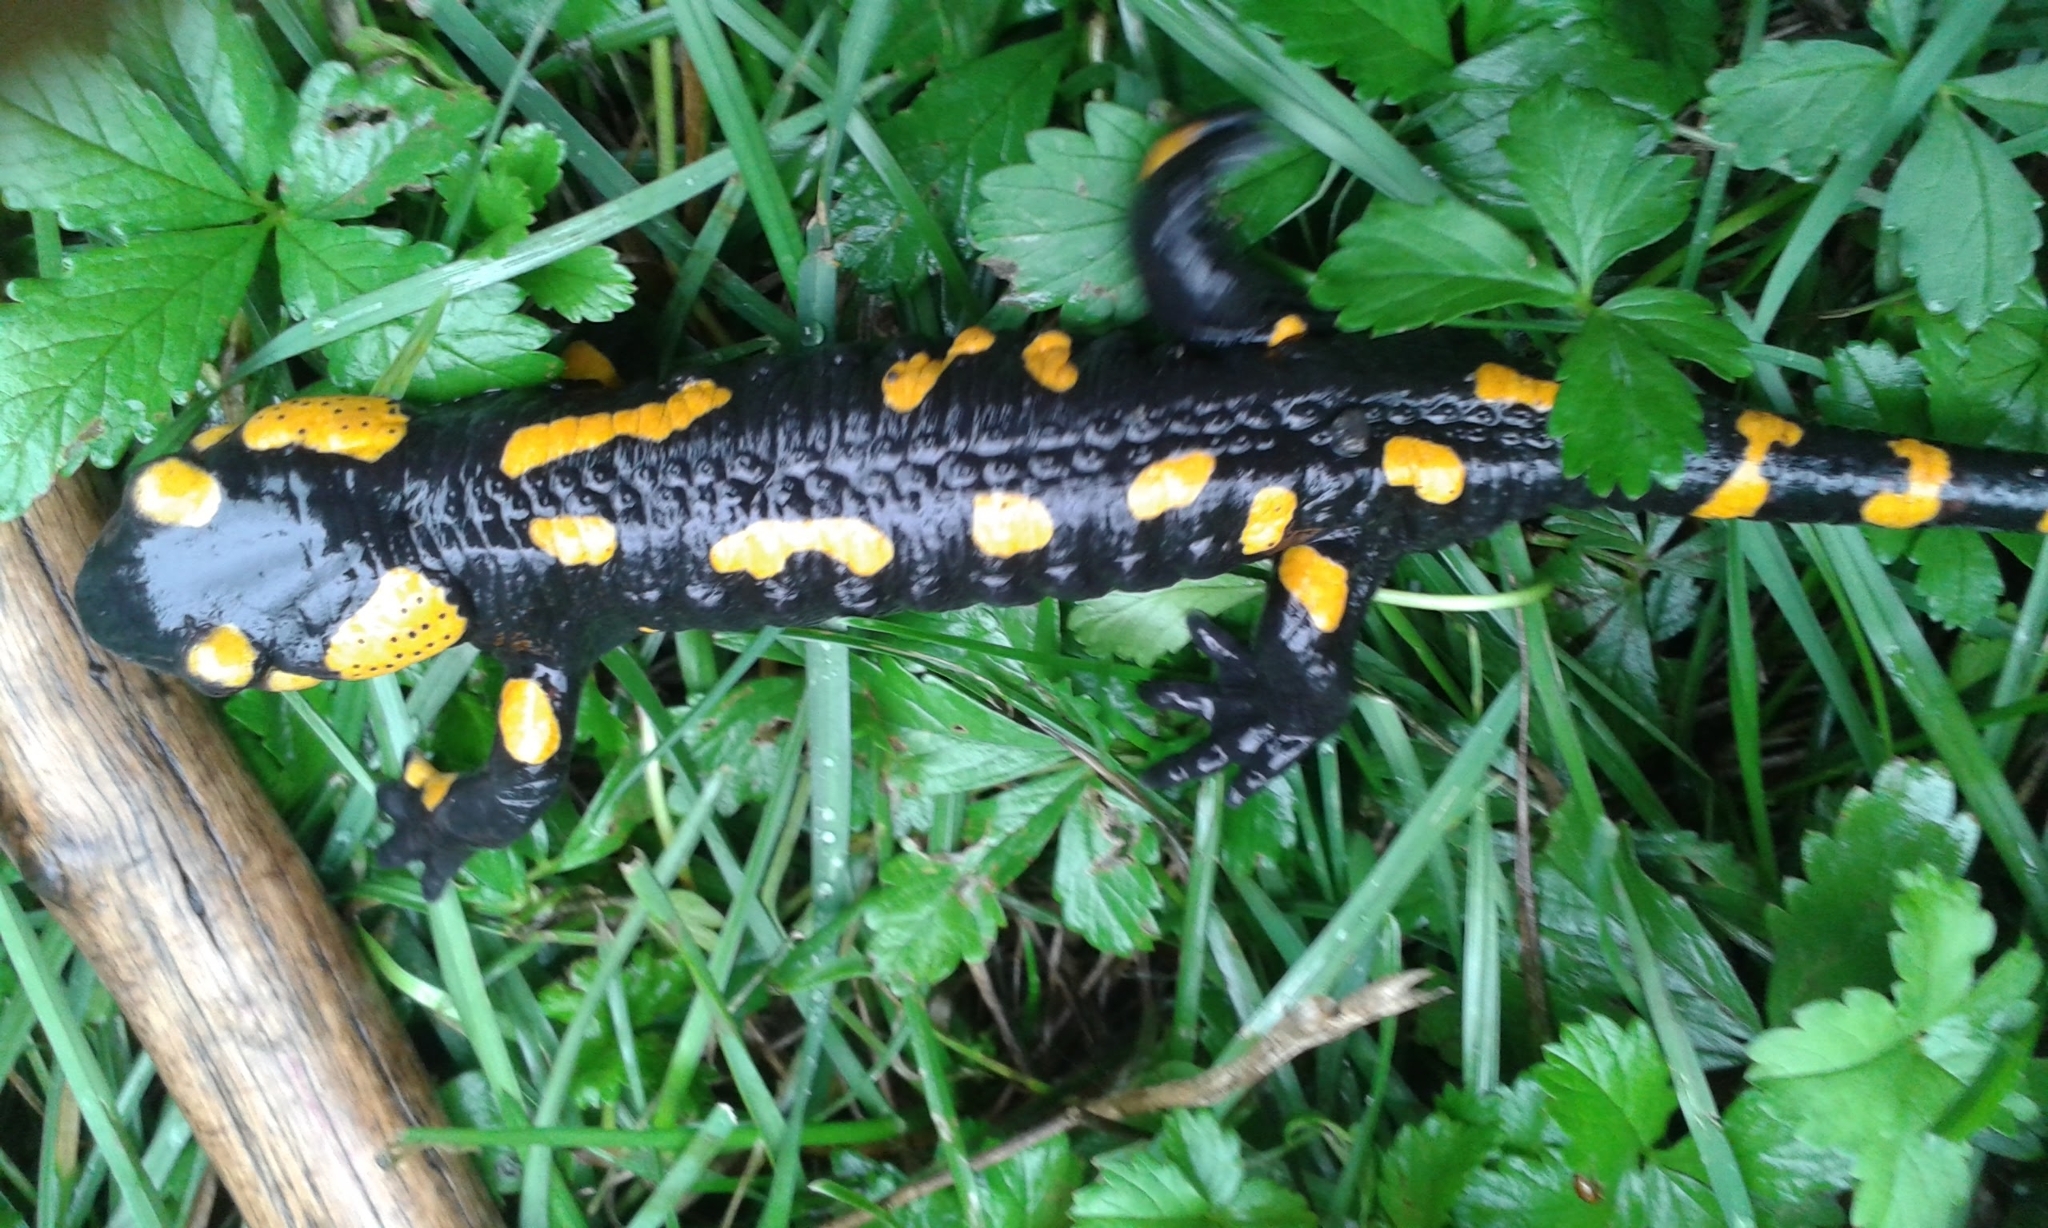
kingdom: Animalia
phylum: Chordata
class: Amphibia
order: Caudata
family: Salamandridae
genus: Salamandra
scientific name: Salamandra salamandra
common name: Fire salamander
